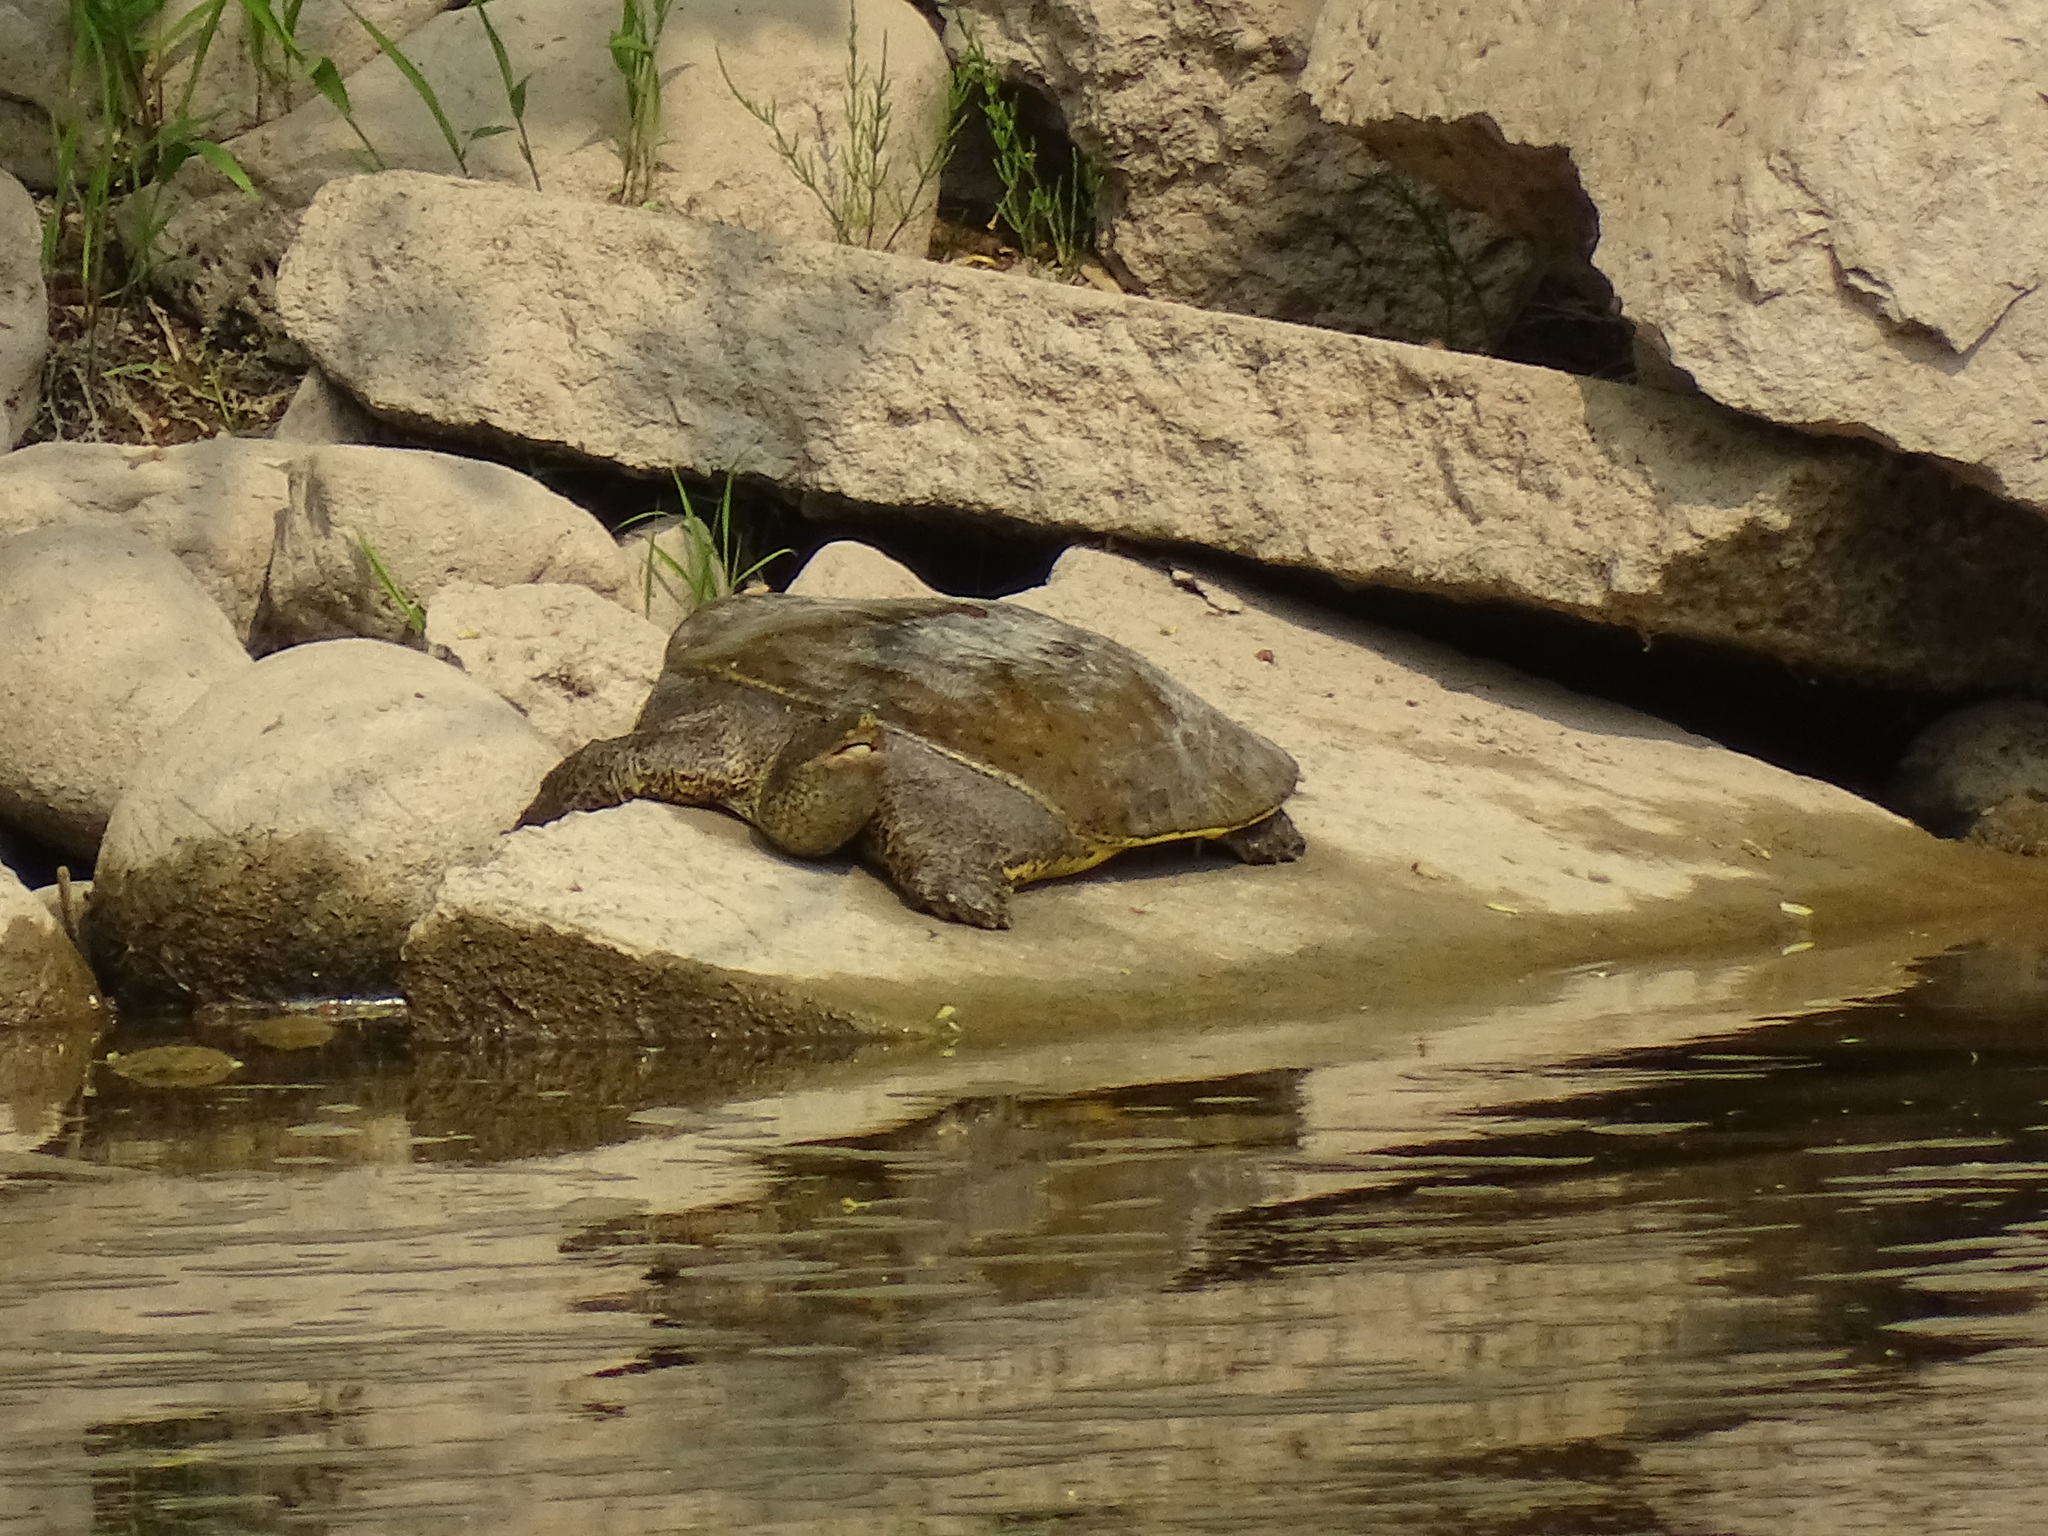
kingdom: Animalia
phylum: Chordata
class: Testudines
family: Trionychidae
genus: Apalone
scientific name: Apalone spinifera
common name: Spiny softshell turtle
